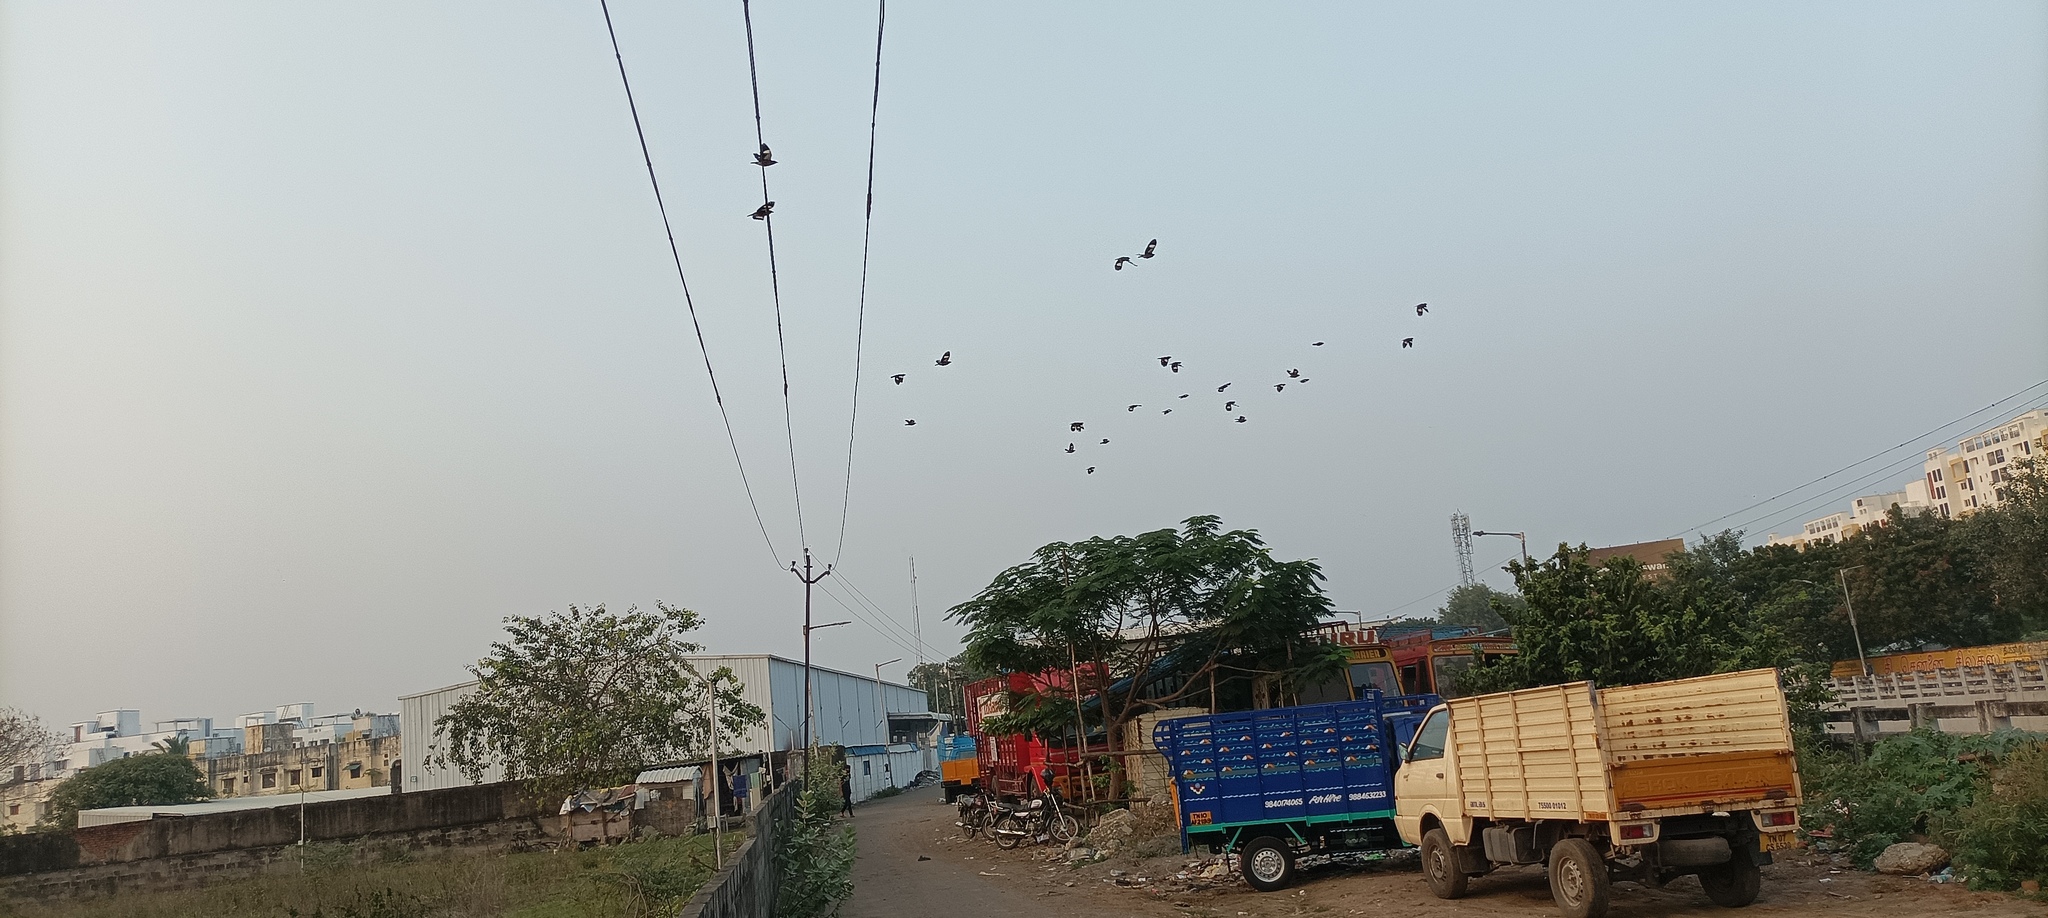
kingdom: Animalia
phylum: Chordata
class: Aves
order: Passeriformes
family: Sturnidae
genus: Acridotheres
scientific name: Acridotheres tristis
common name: Common myna
